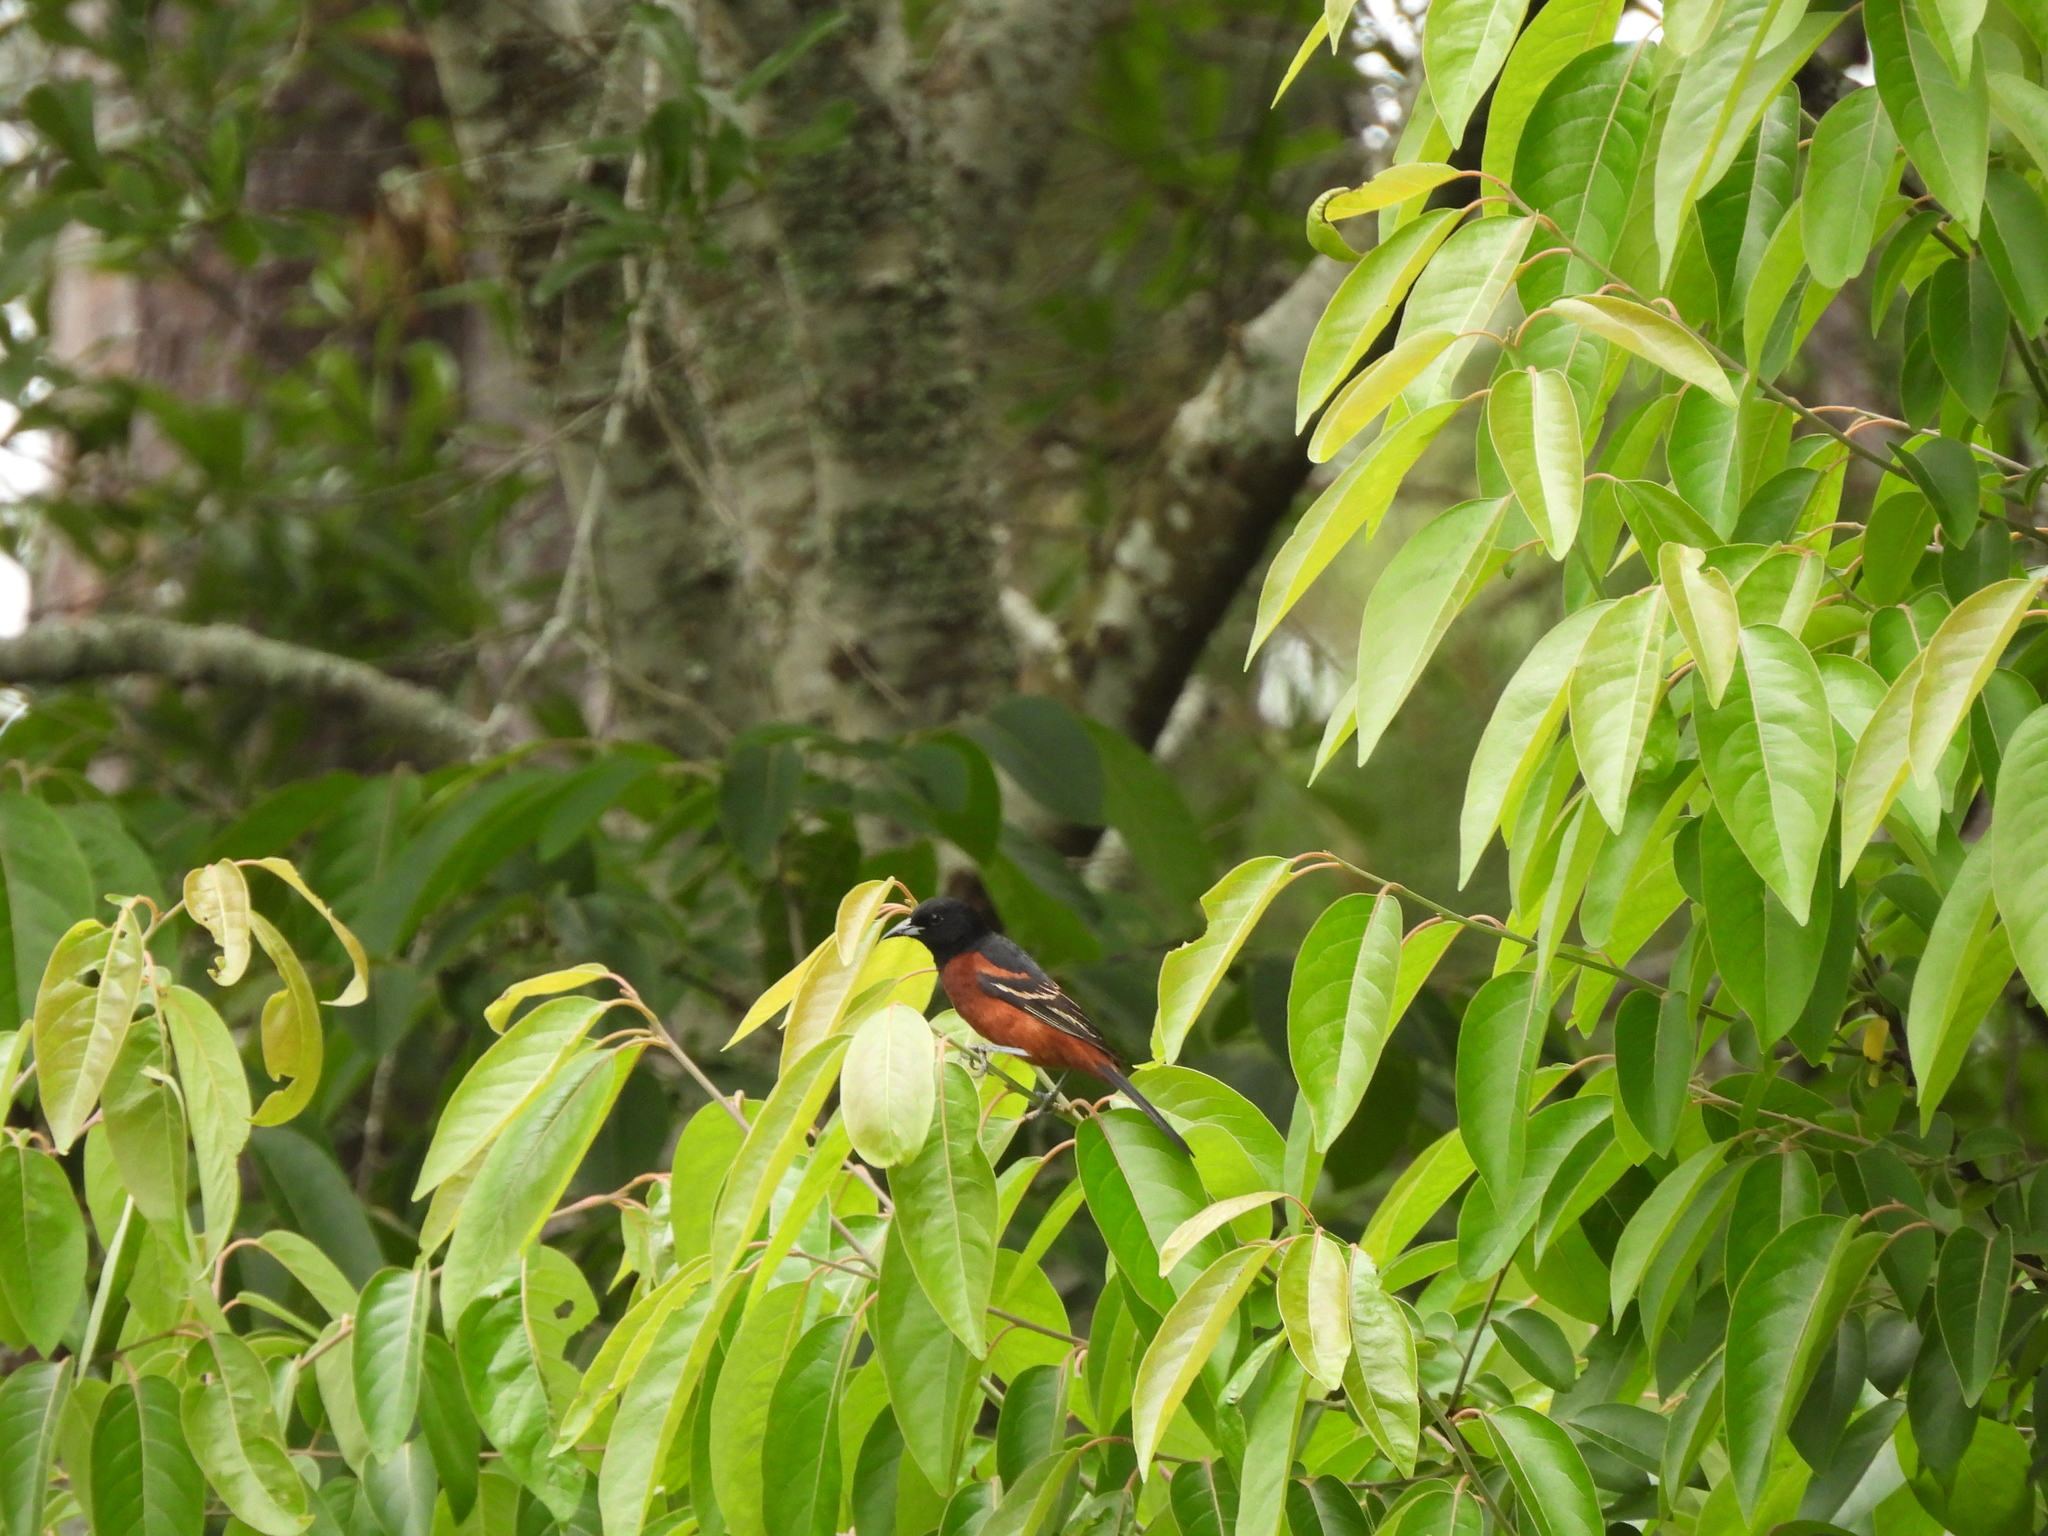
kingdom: Animalia
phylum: Chordata
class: Aves
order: Passeriformes
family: Icteridae
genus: Icterus
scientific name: Icterus spurius
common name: Orchard oriole
